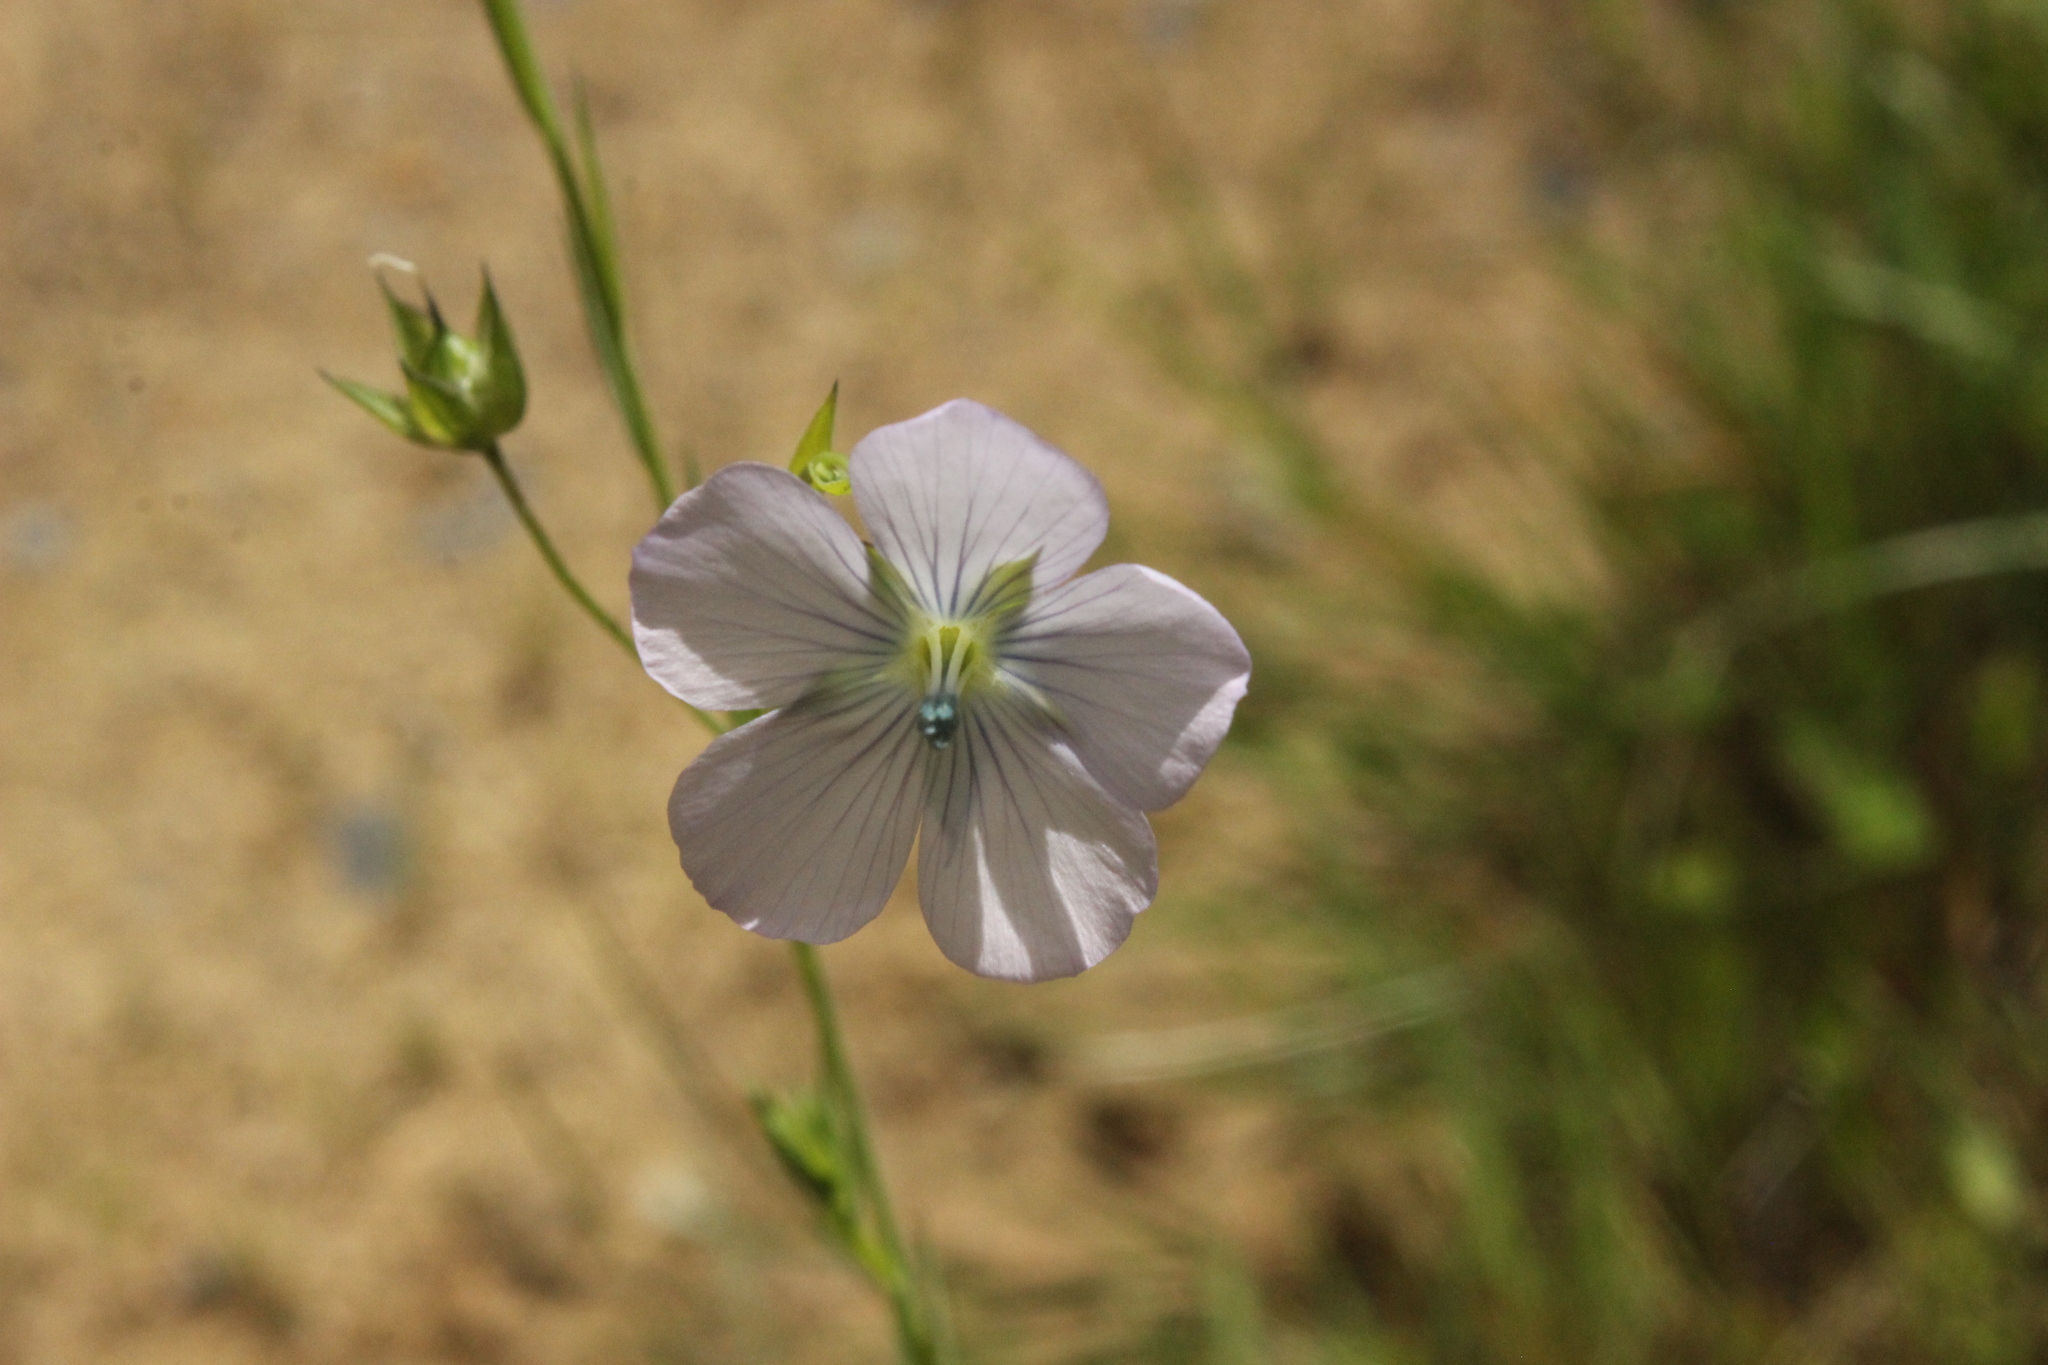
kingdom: Plantae
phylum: Tracheophyta
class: Magnoliopsida
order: Malpighiales
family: Linaceae
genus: Linum
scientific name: Linum bienne
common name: Pale flax
